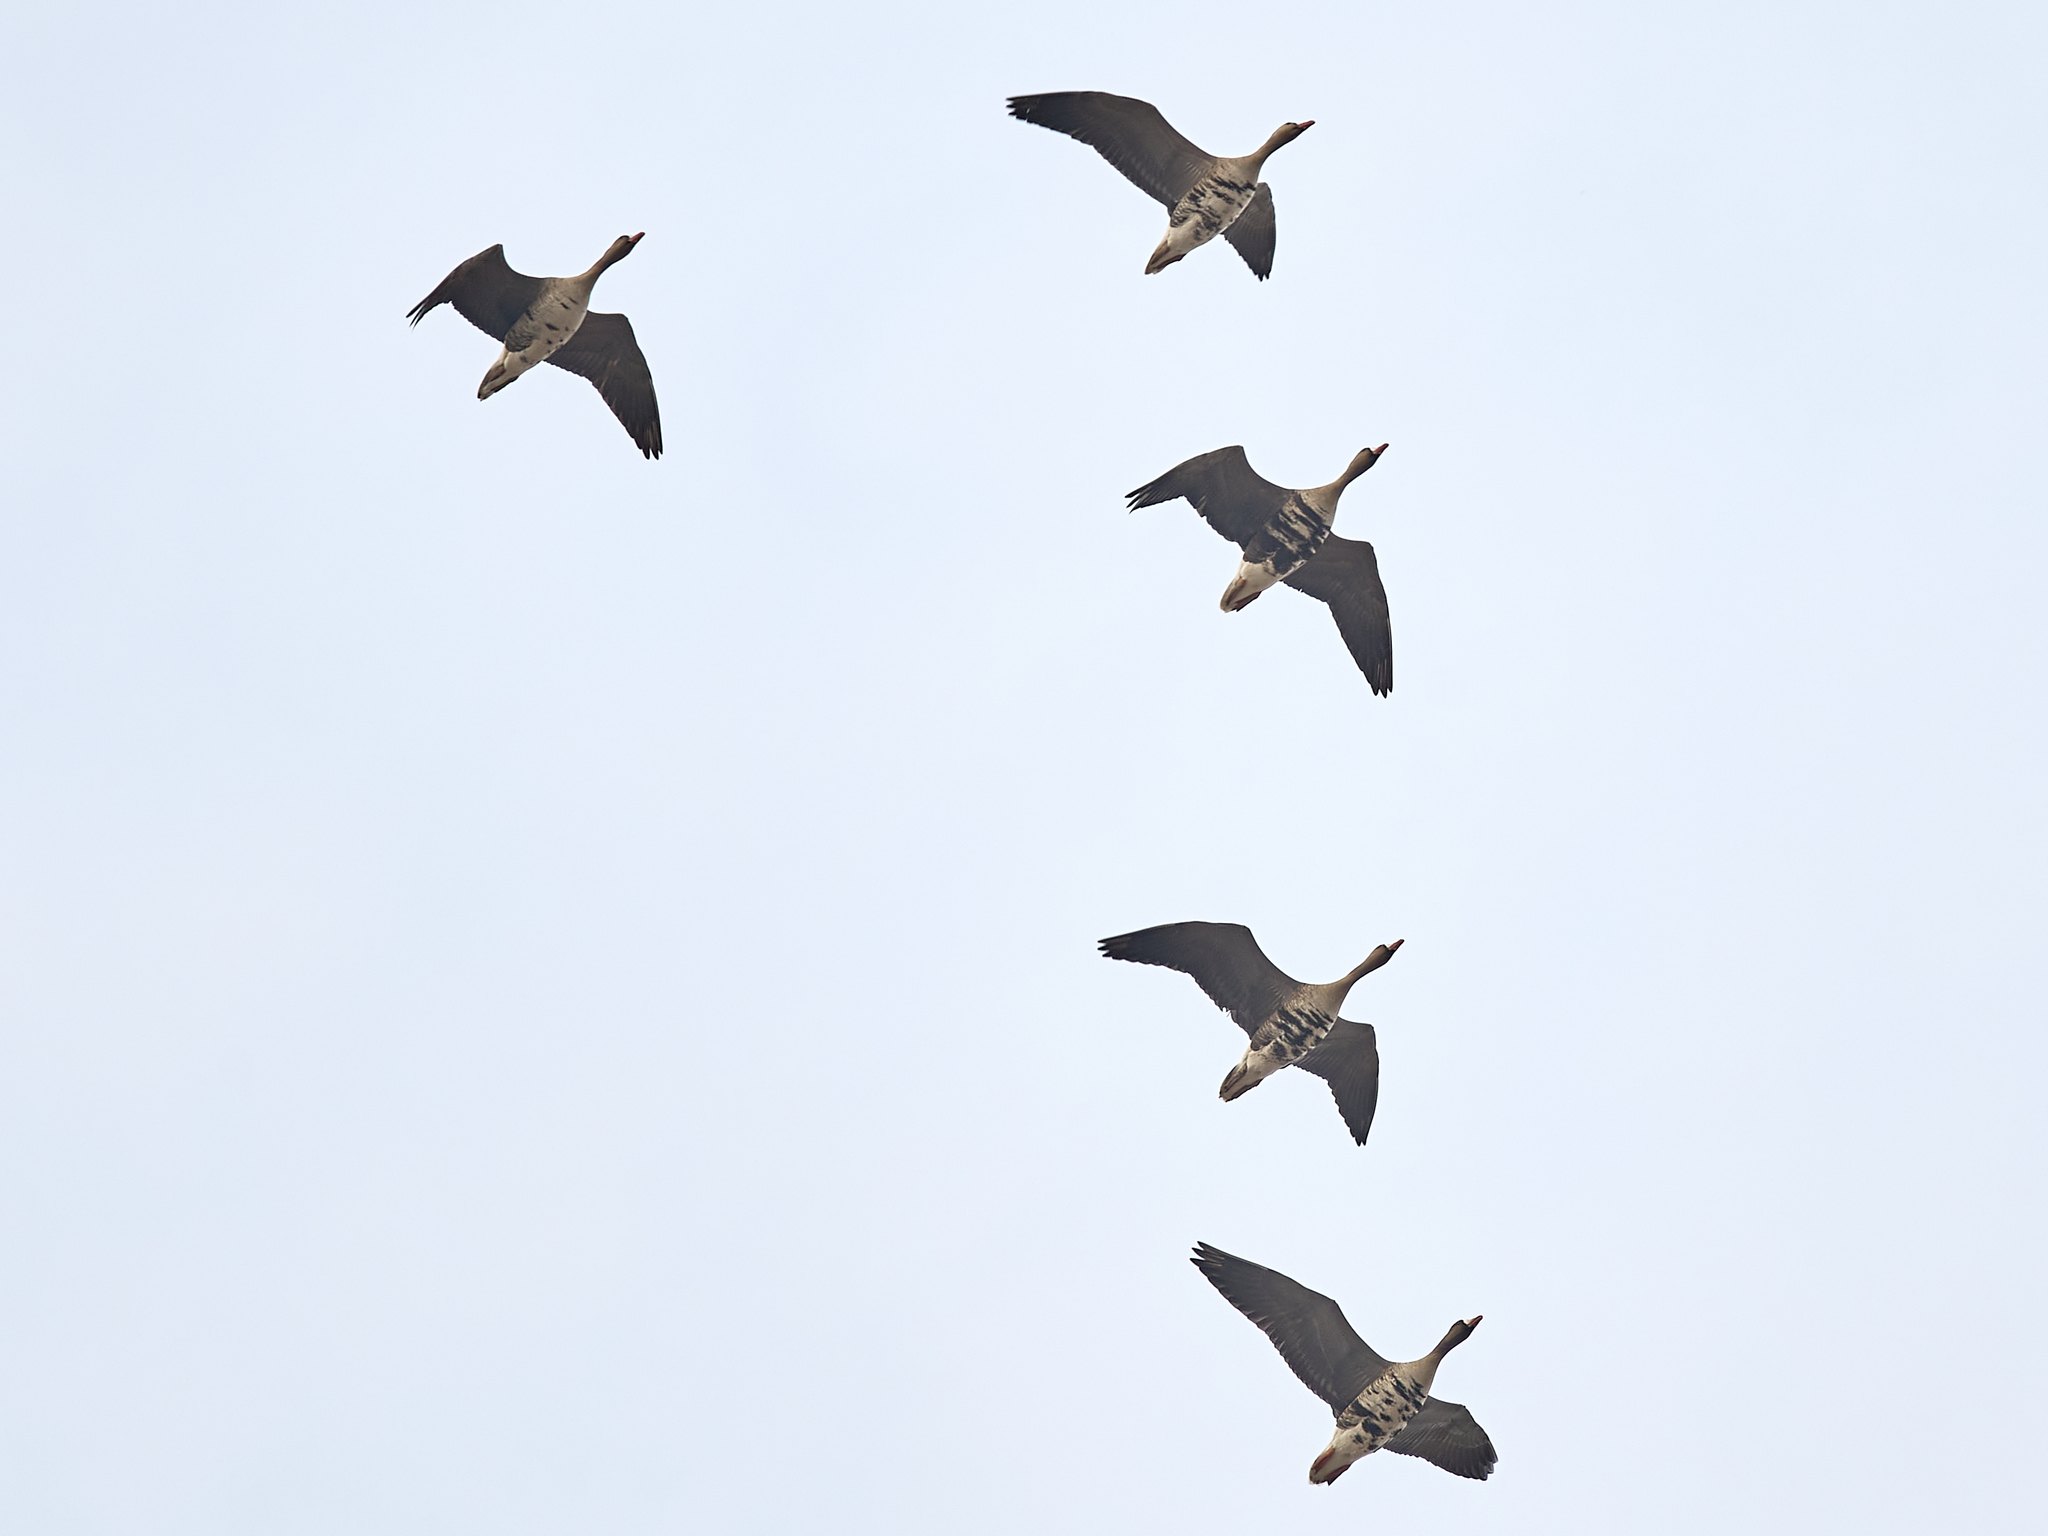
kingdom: Animalia
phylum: Chordata
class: Aves
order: Anseriformes
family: Anatidae
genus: Anser
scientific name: Anser albifrons
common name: Greater white-fronted goose
